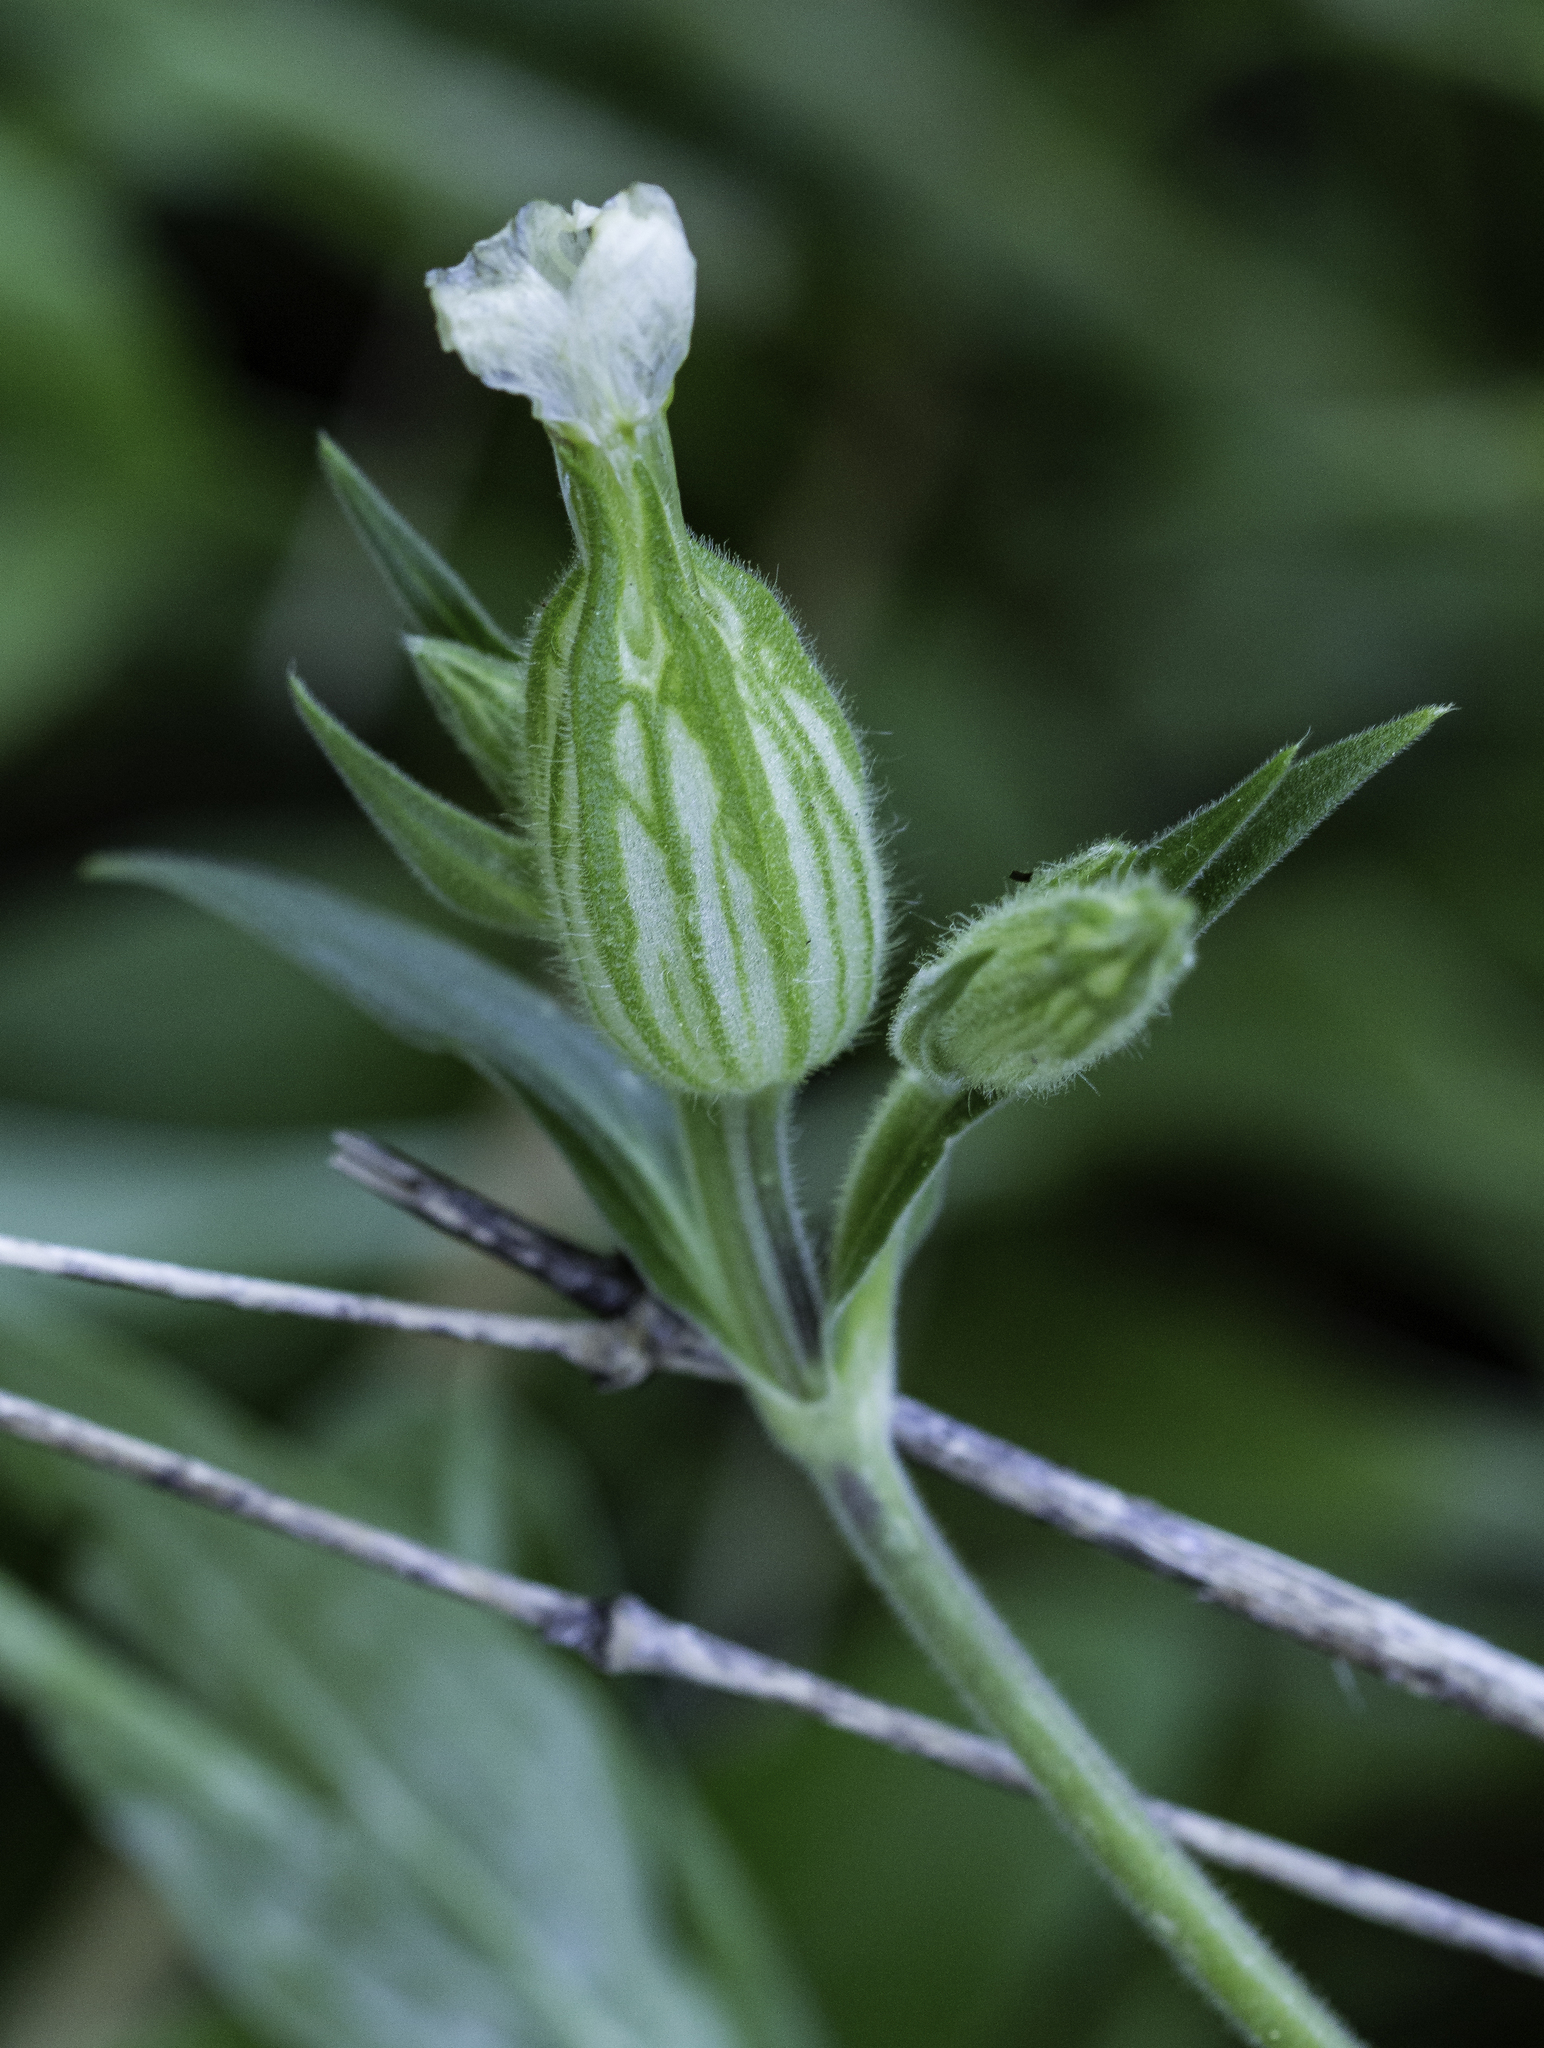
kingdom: Plantae
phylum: Tracheophyta
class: Magnoliopsida
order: Caryophyllales
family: Caryophyllaceae
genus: Silene
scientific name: Silene latifolia
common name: White campion
